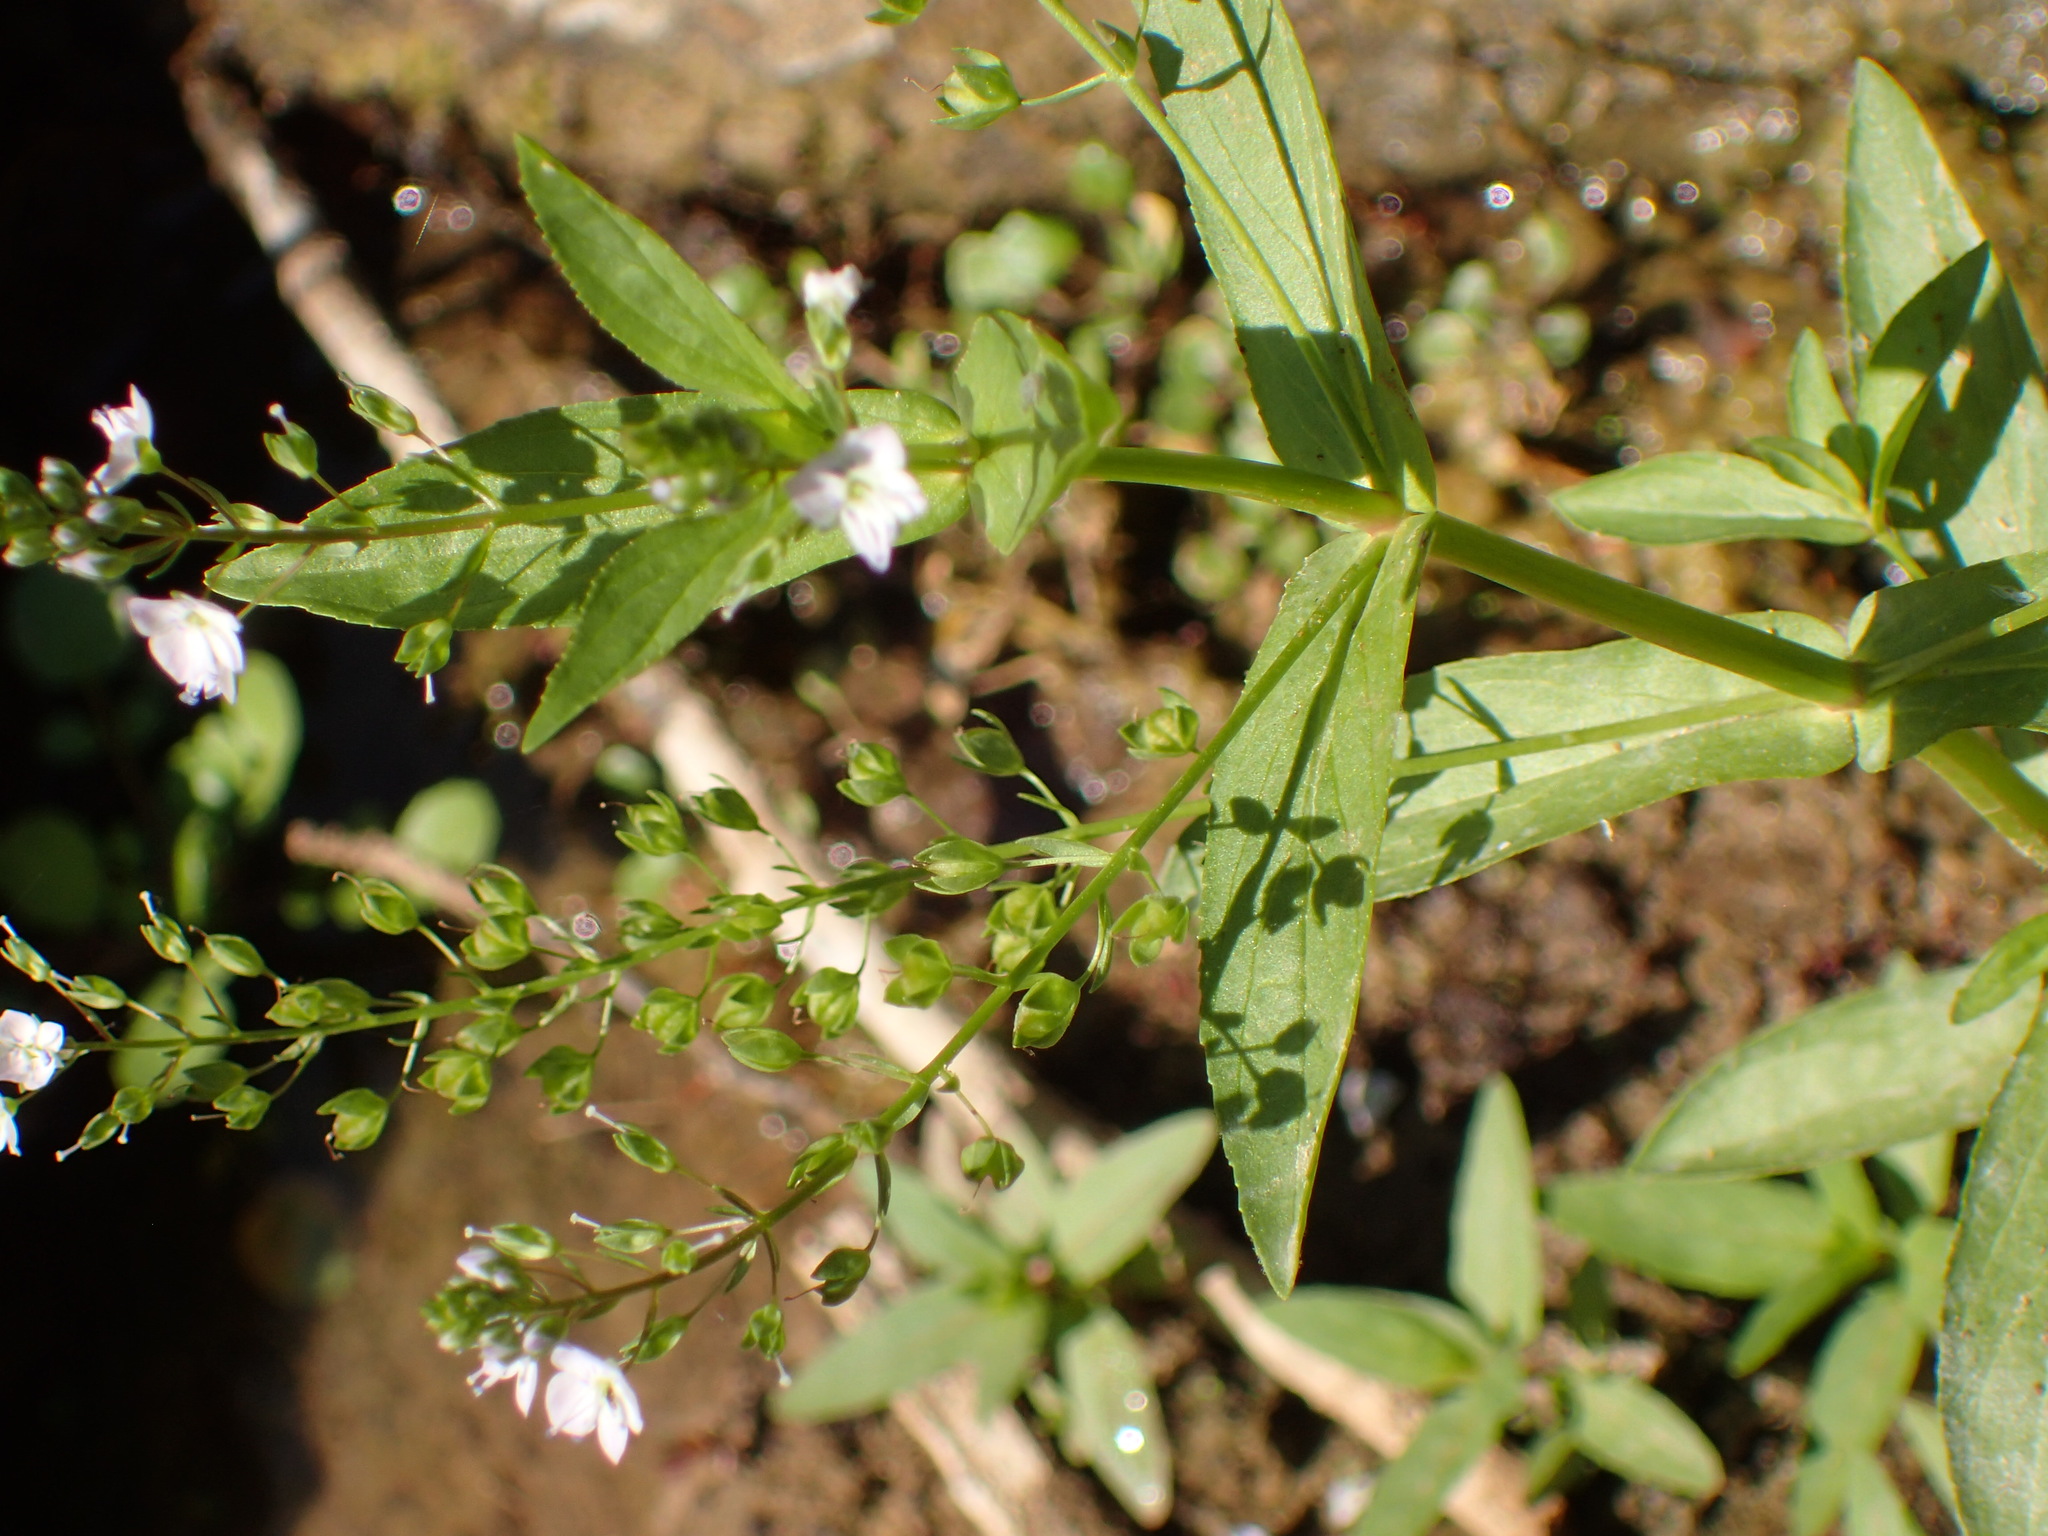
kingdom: Plantae
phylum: Tracheophyta
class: Magnoliopsida
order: Lamiales
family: Plantaginaceae
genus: Veronica
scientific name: Veronica anagallis-aquatica
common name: Water speedwell
